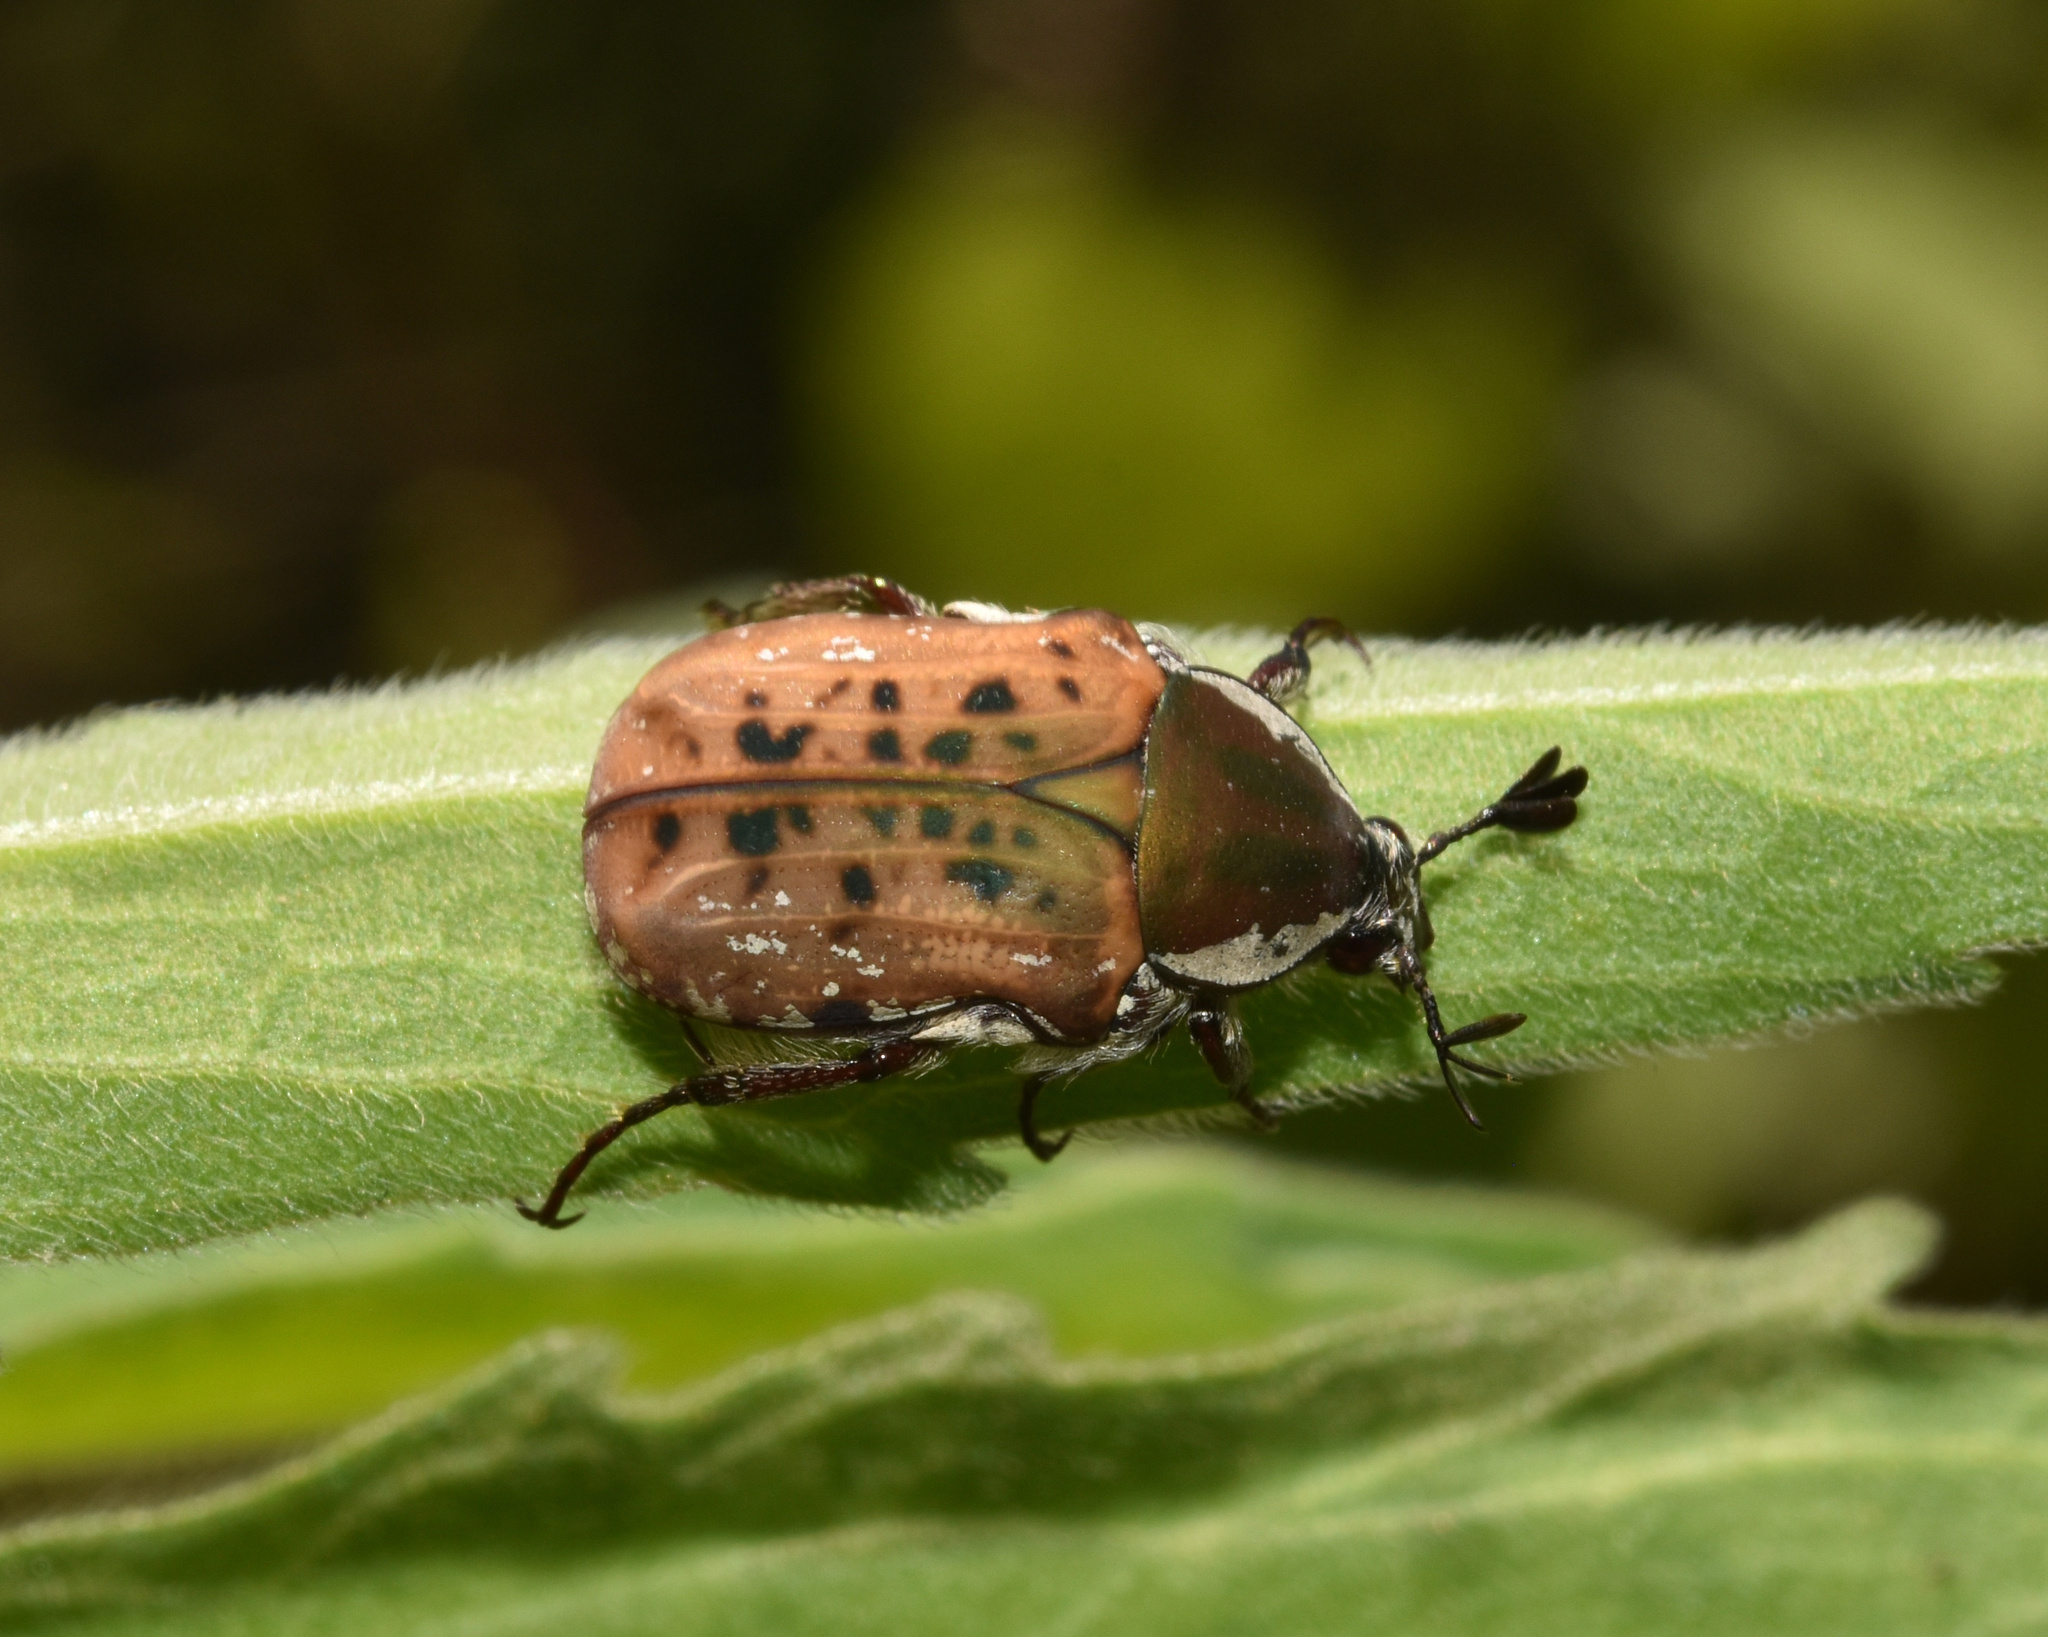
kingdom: Animalia
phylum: Arthropoda
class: Insecta
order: Coleoptera
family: Scarabaeidae
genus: Elaphinis
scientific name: Elaphinis irrorata
